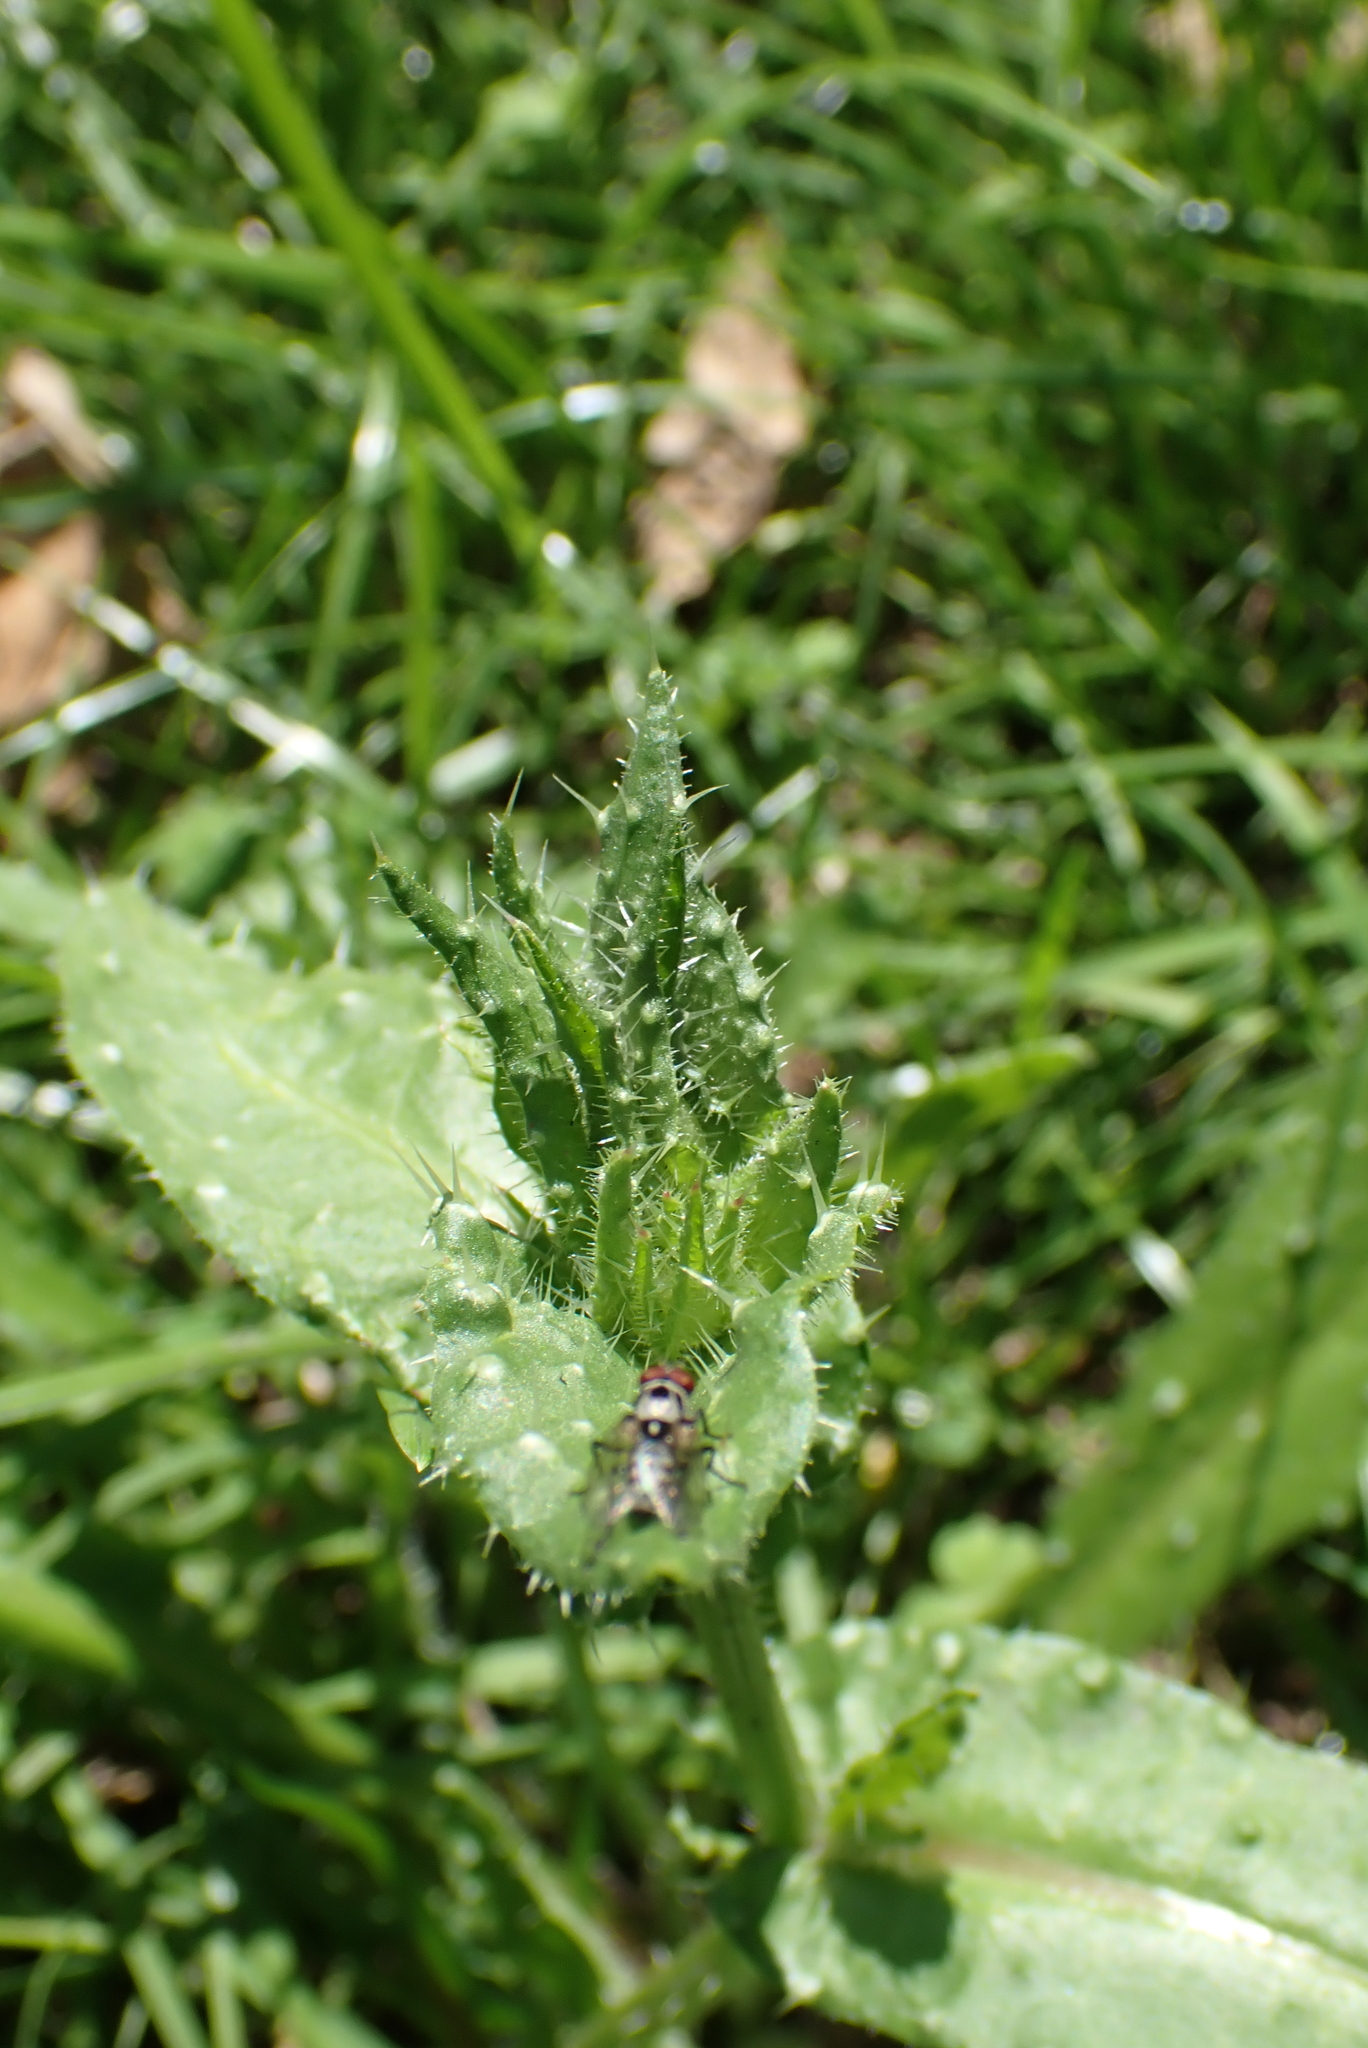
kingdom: Plantae
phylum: Tracheophyta
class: Magnoliopsida
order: Asterales
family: Asteraceae
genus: Helminthotheca
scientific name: Helminthotheca echioides
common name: Ox-tongue
